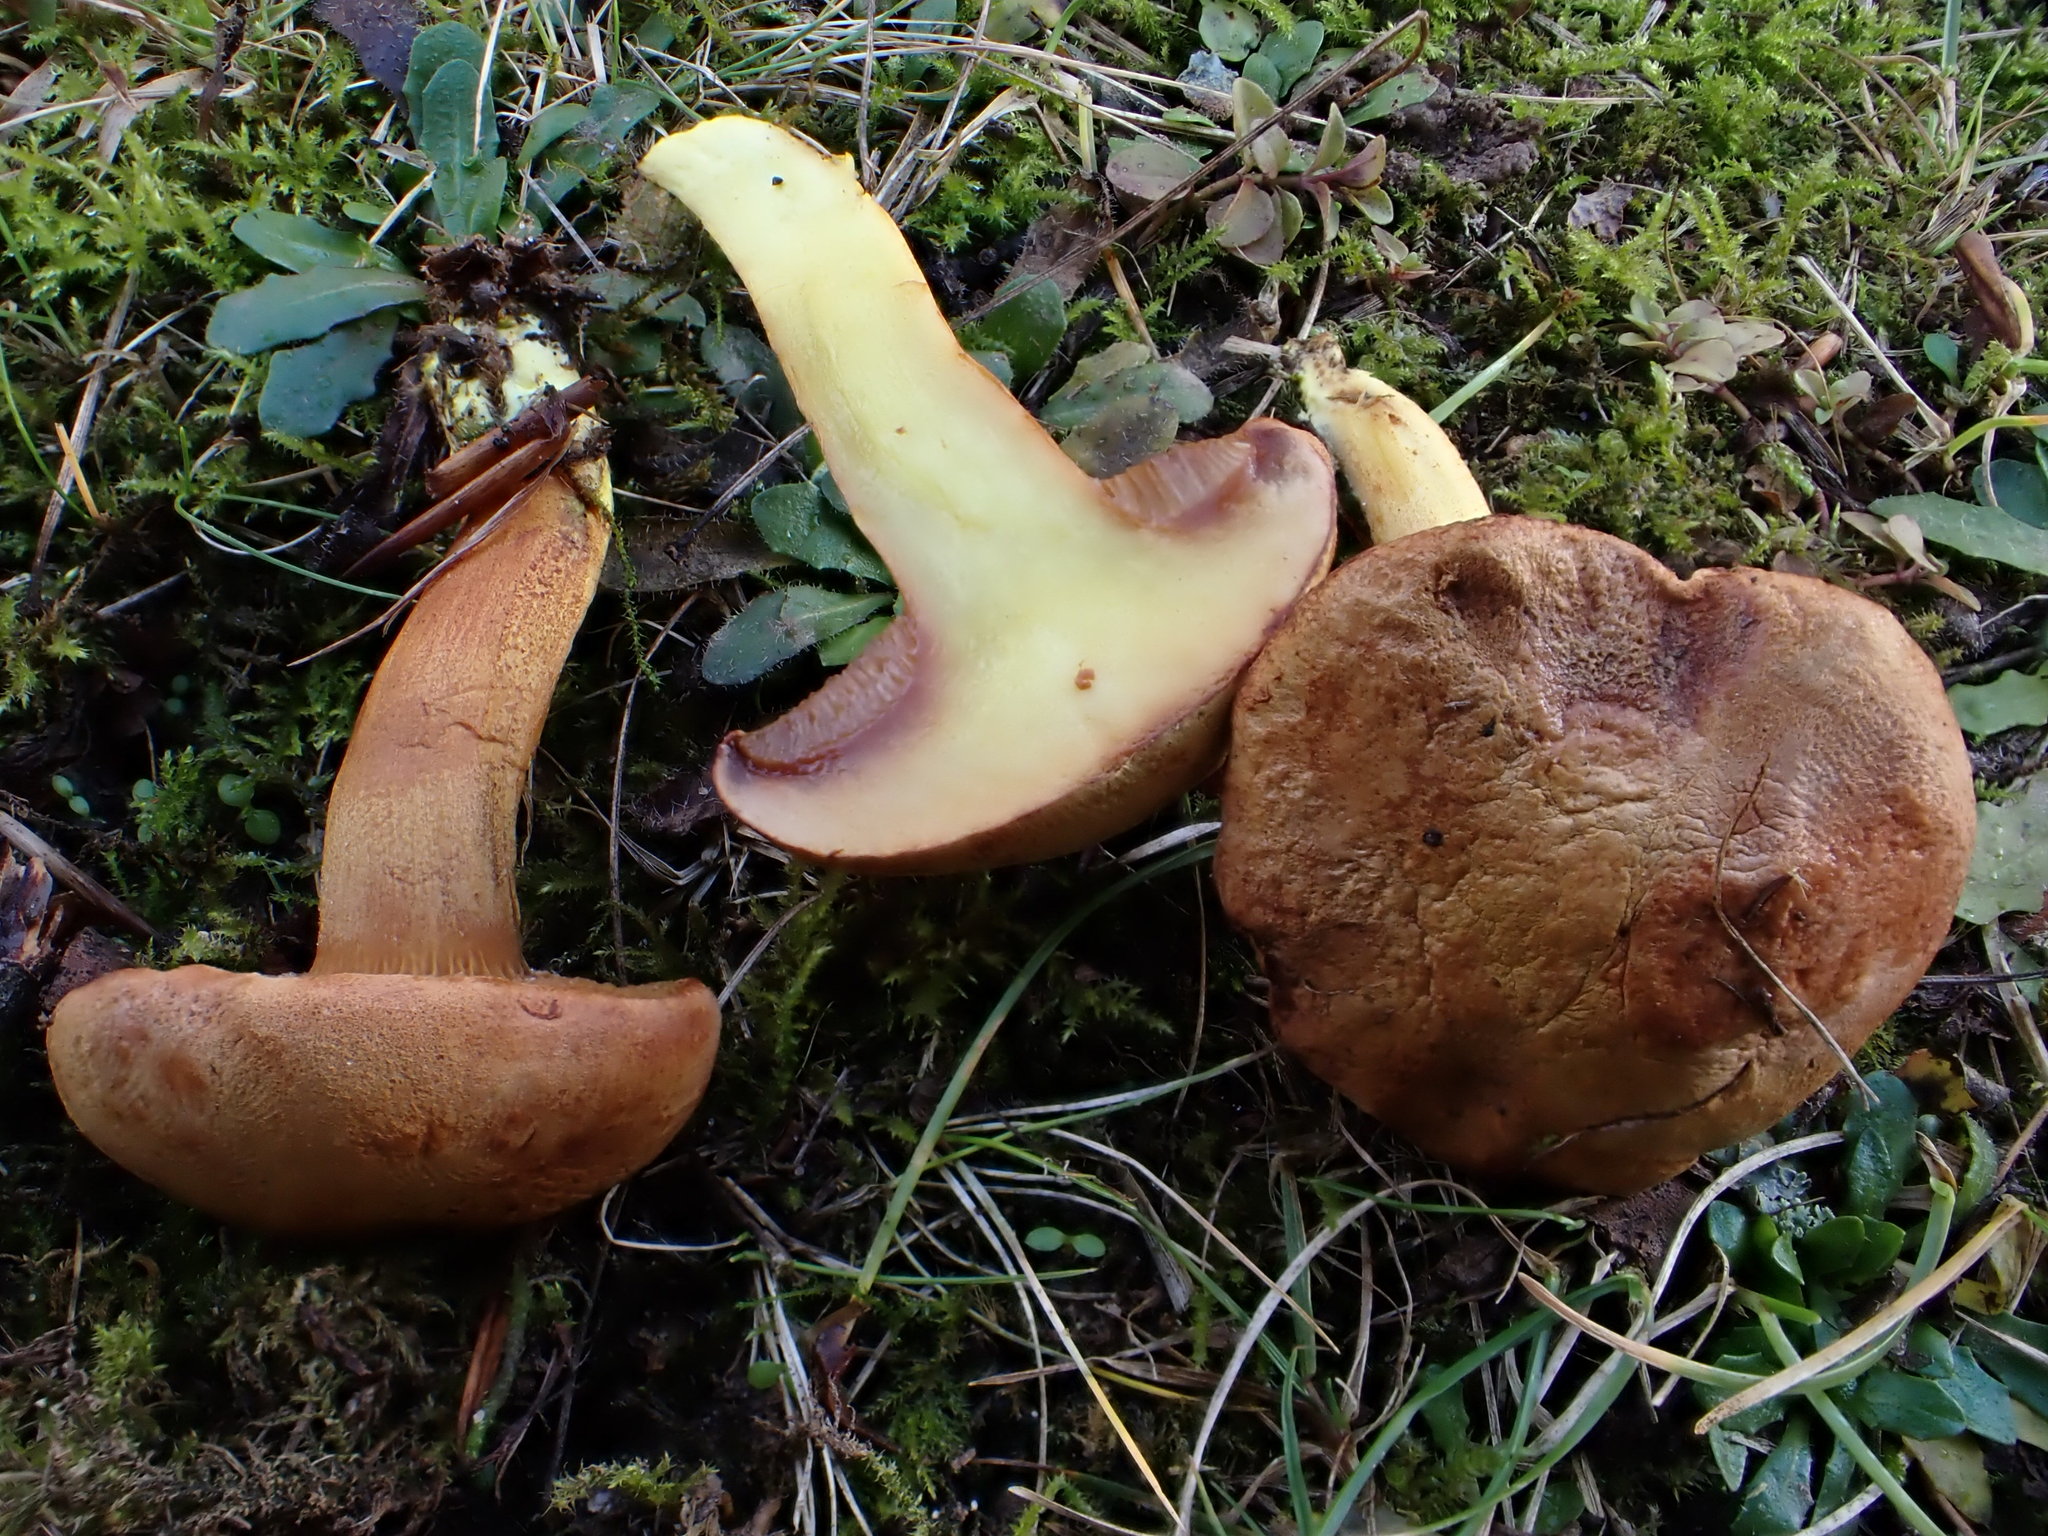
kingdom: Fungi
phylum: Basidiomycota
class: Agaricomycetes
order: Boletales
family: Boletaceae
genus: Chalciporus
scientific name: Chalciporus piperatus
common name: Peppery bolete
